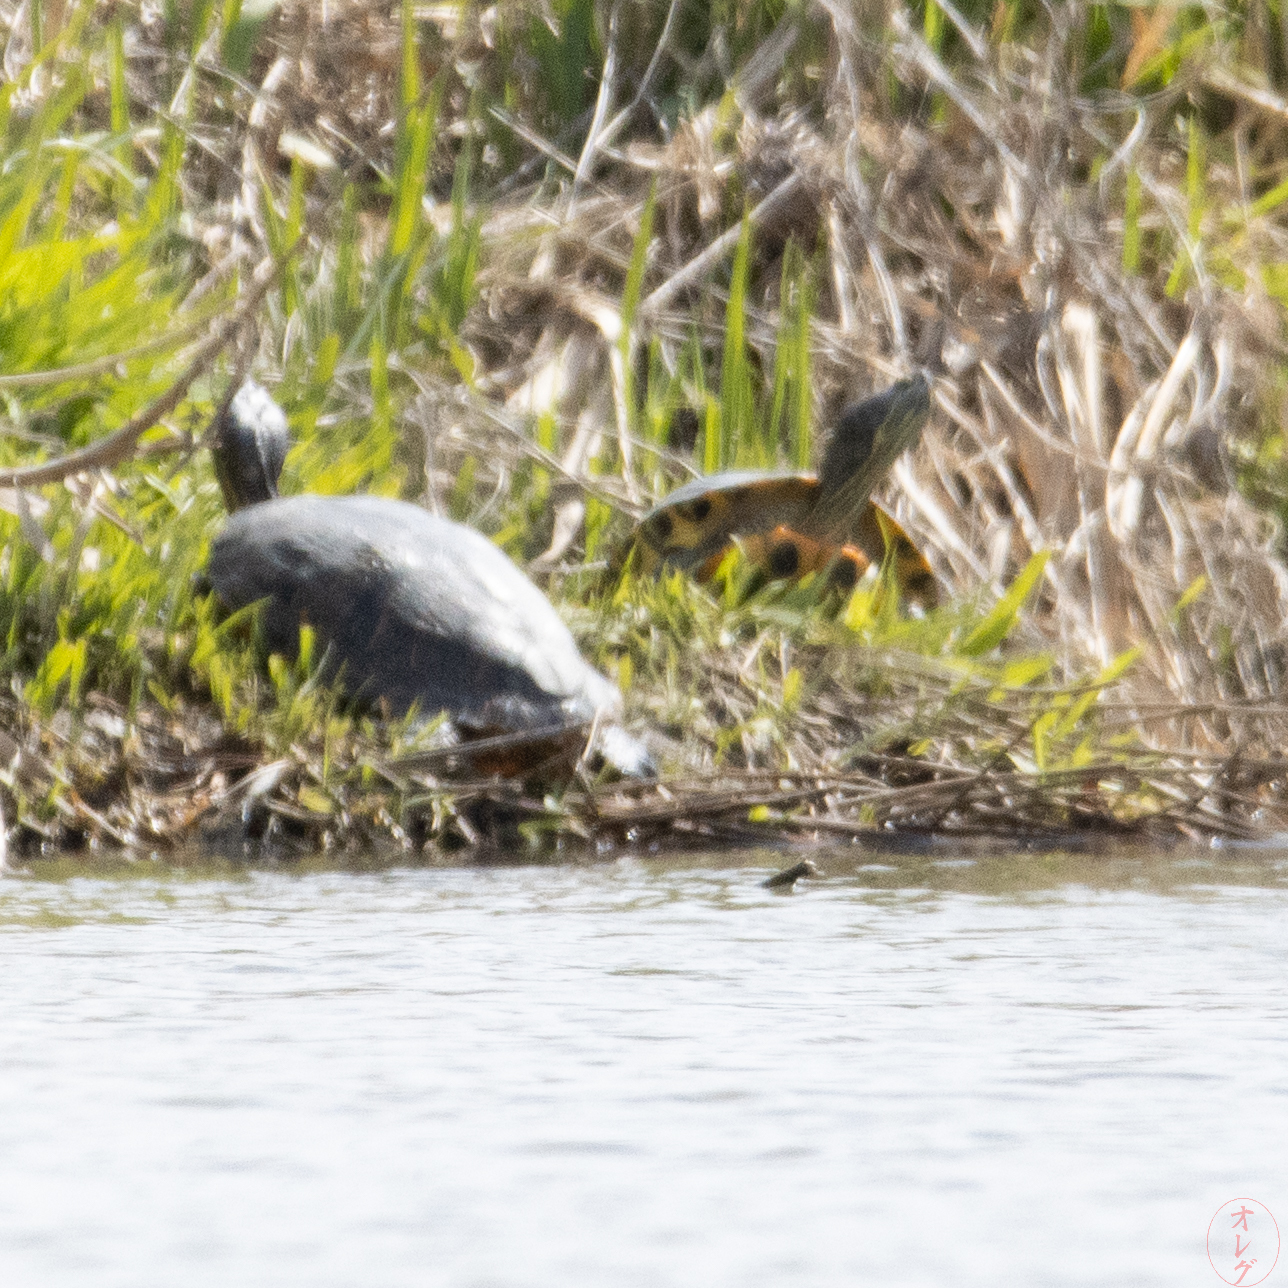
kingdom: Animalia
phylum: Chordata
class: Testudines
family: Emydidae
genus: Trachemys
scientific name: Trachemys scripta
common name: Slider
